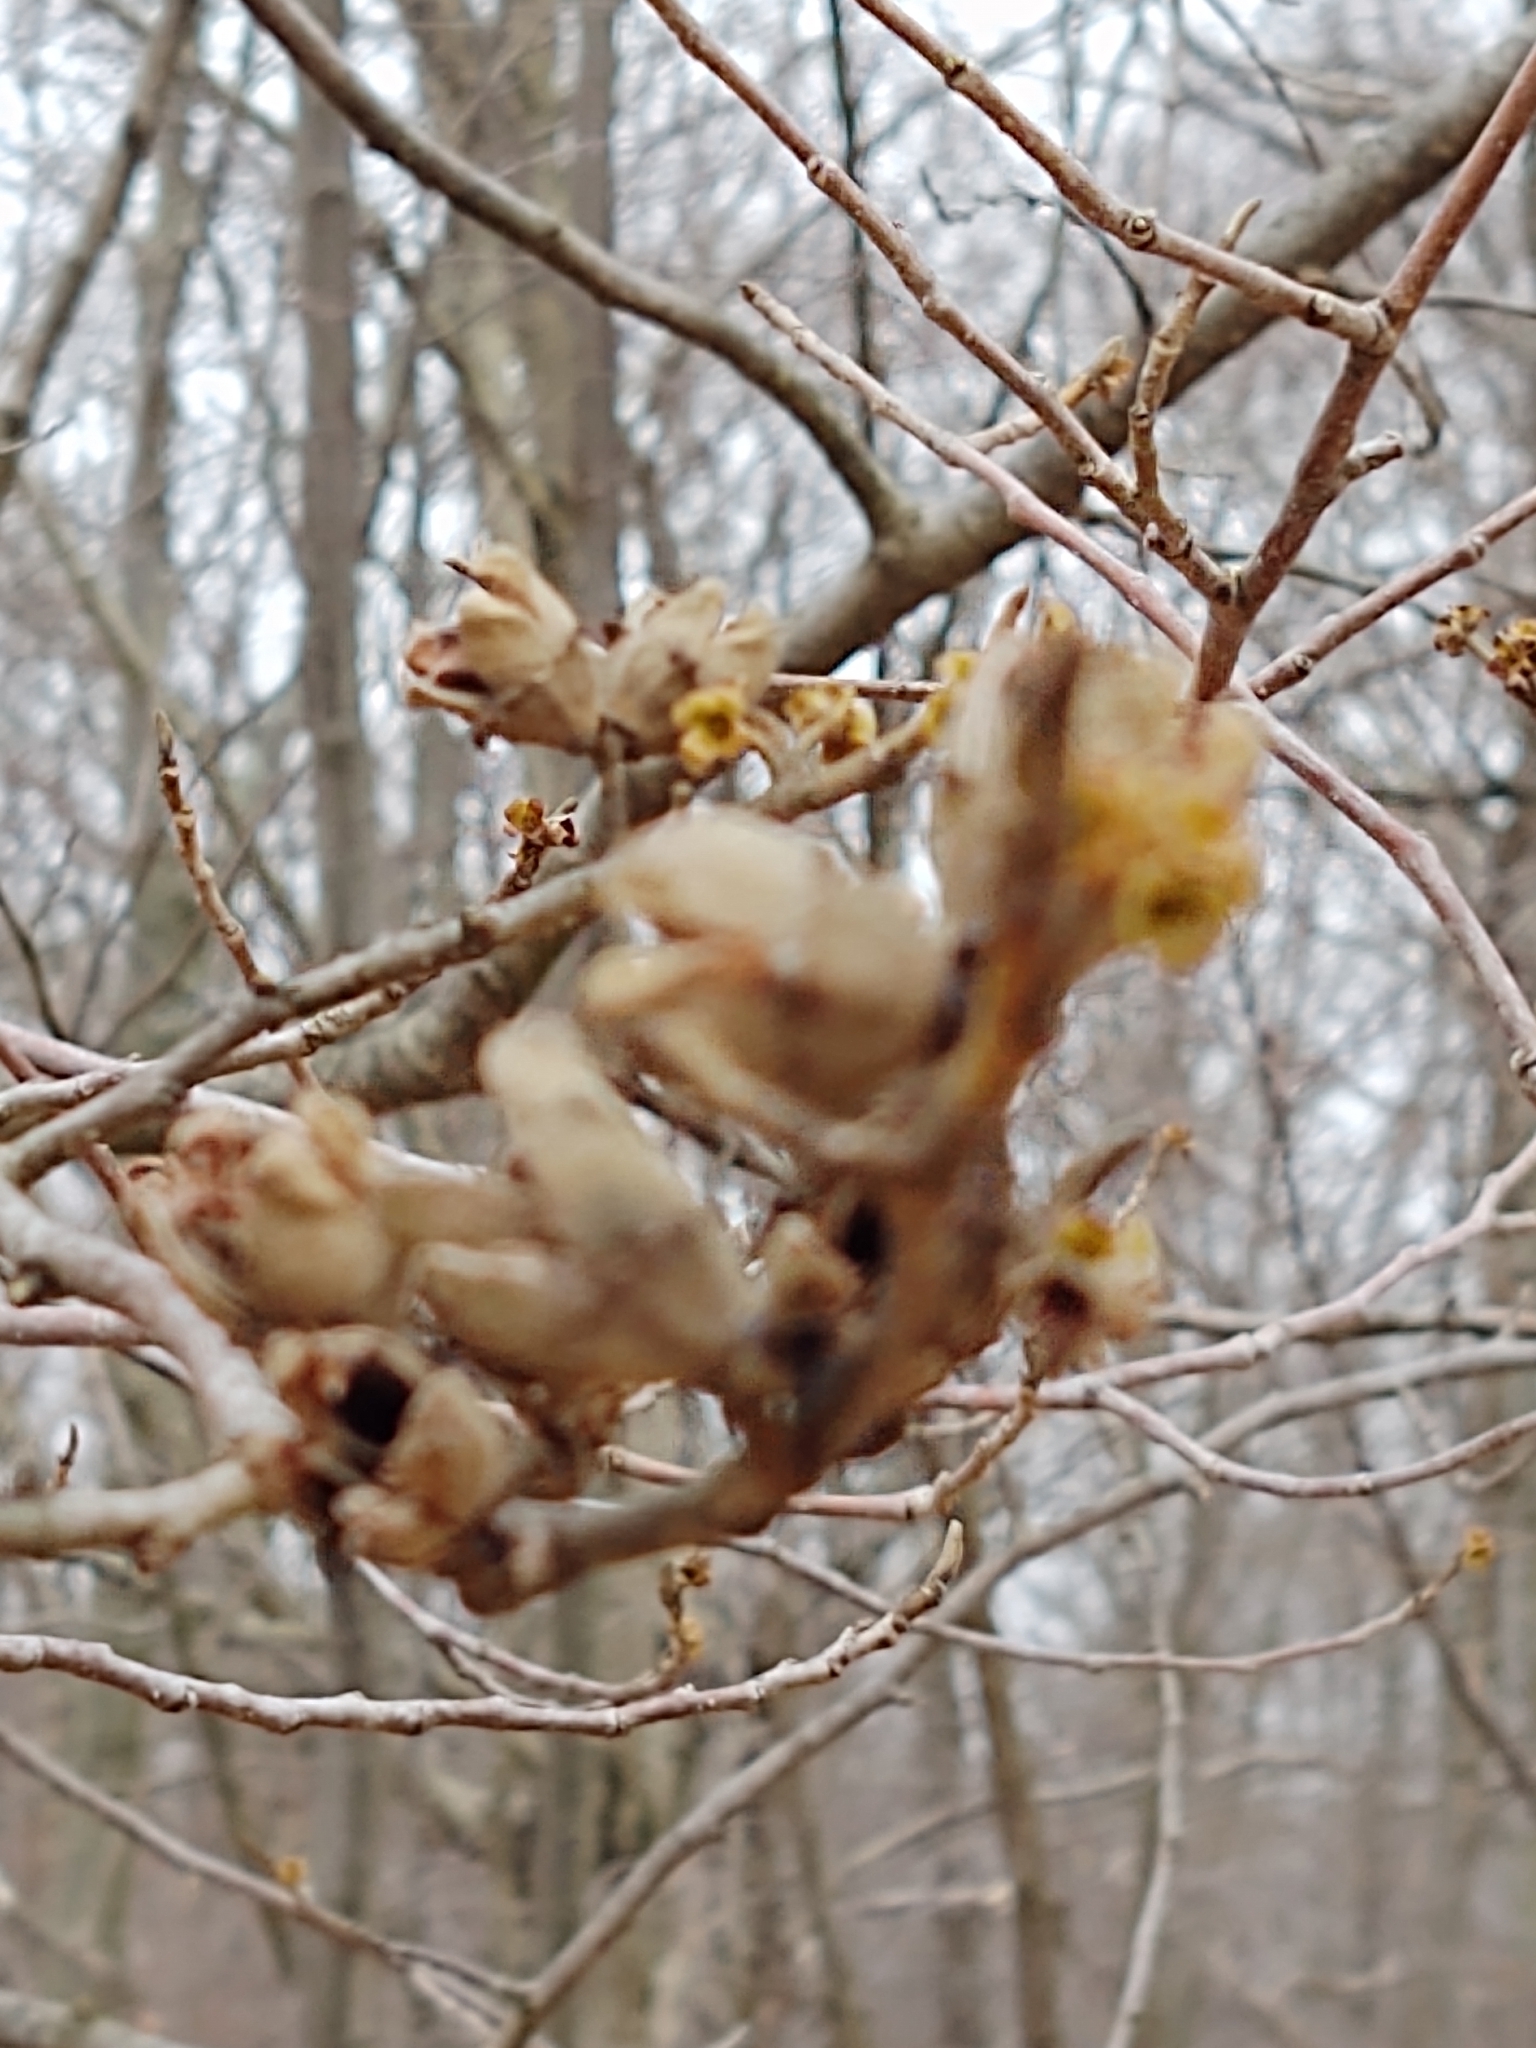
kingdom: Plantae
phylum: Tracheophyta
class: Magnoliopsida
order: Saxifragales
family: Hamamelidaceae
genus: Hamamelis
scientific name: Hamamelis virginiana
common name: Witch-hazel
